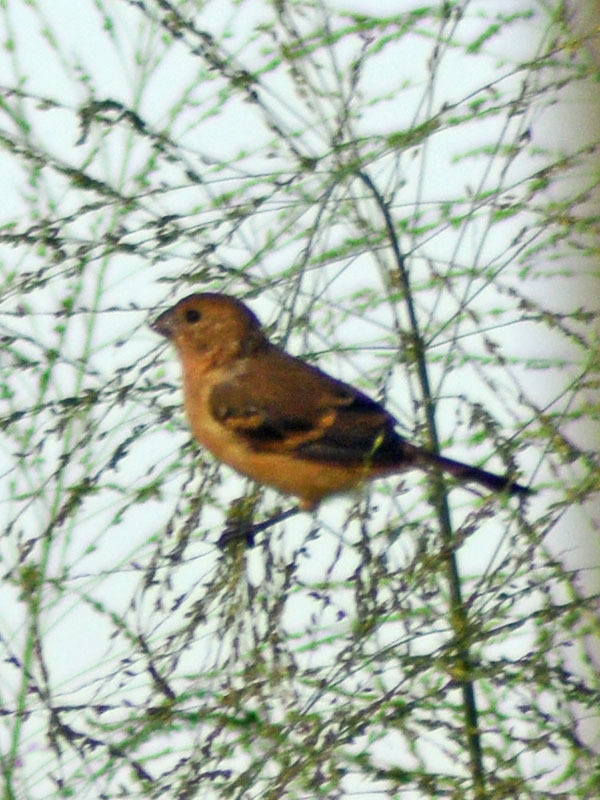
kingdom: Animalia
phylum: Chordata
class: Aves
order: Passeriformes
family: Thraupidae
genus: Sporophila
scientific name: Sporophila morelleti
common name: Morelet's seedeater
